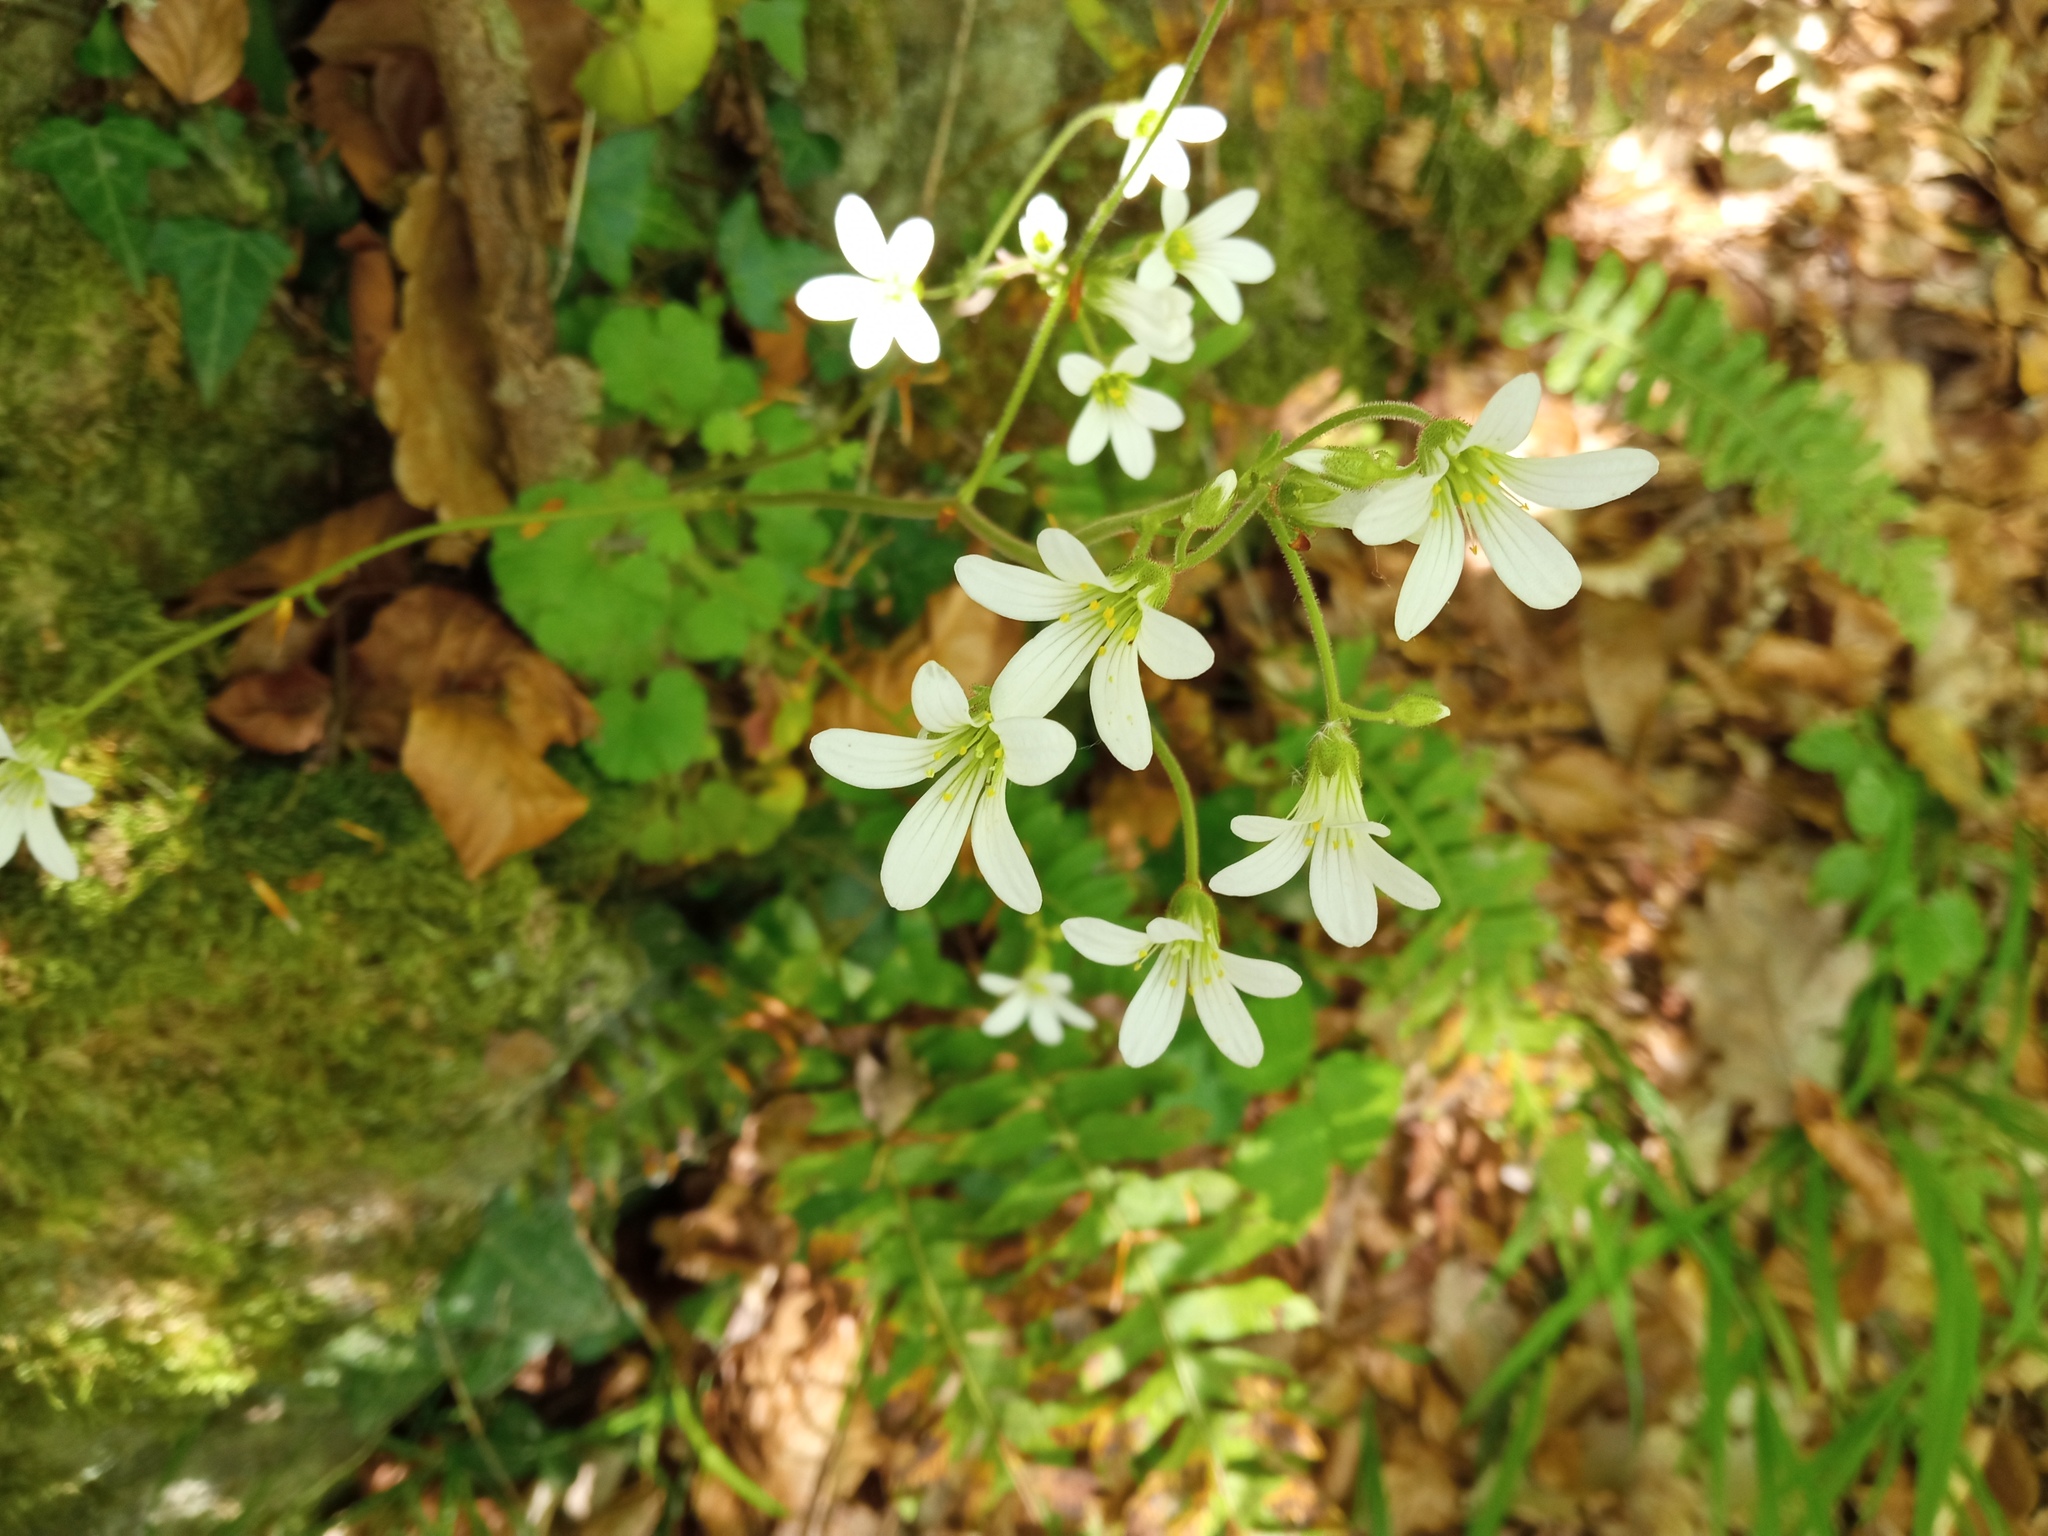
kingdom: Plantae
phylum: Tracheophyta
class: Magnoliopsida
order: Saxifragales
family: Saxifragaceae
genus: Saxifraga
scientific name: Saxifraga granulata
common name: Meadow saxifrage
